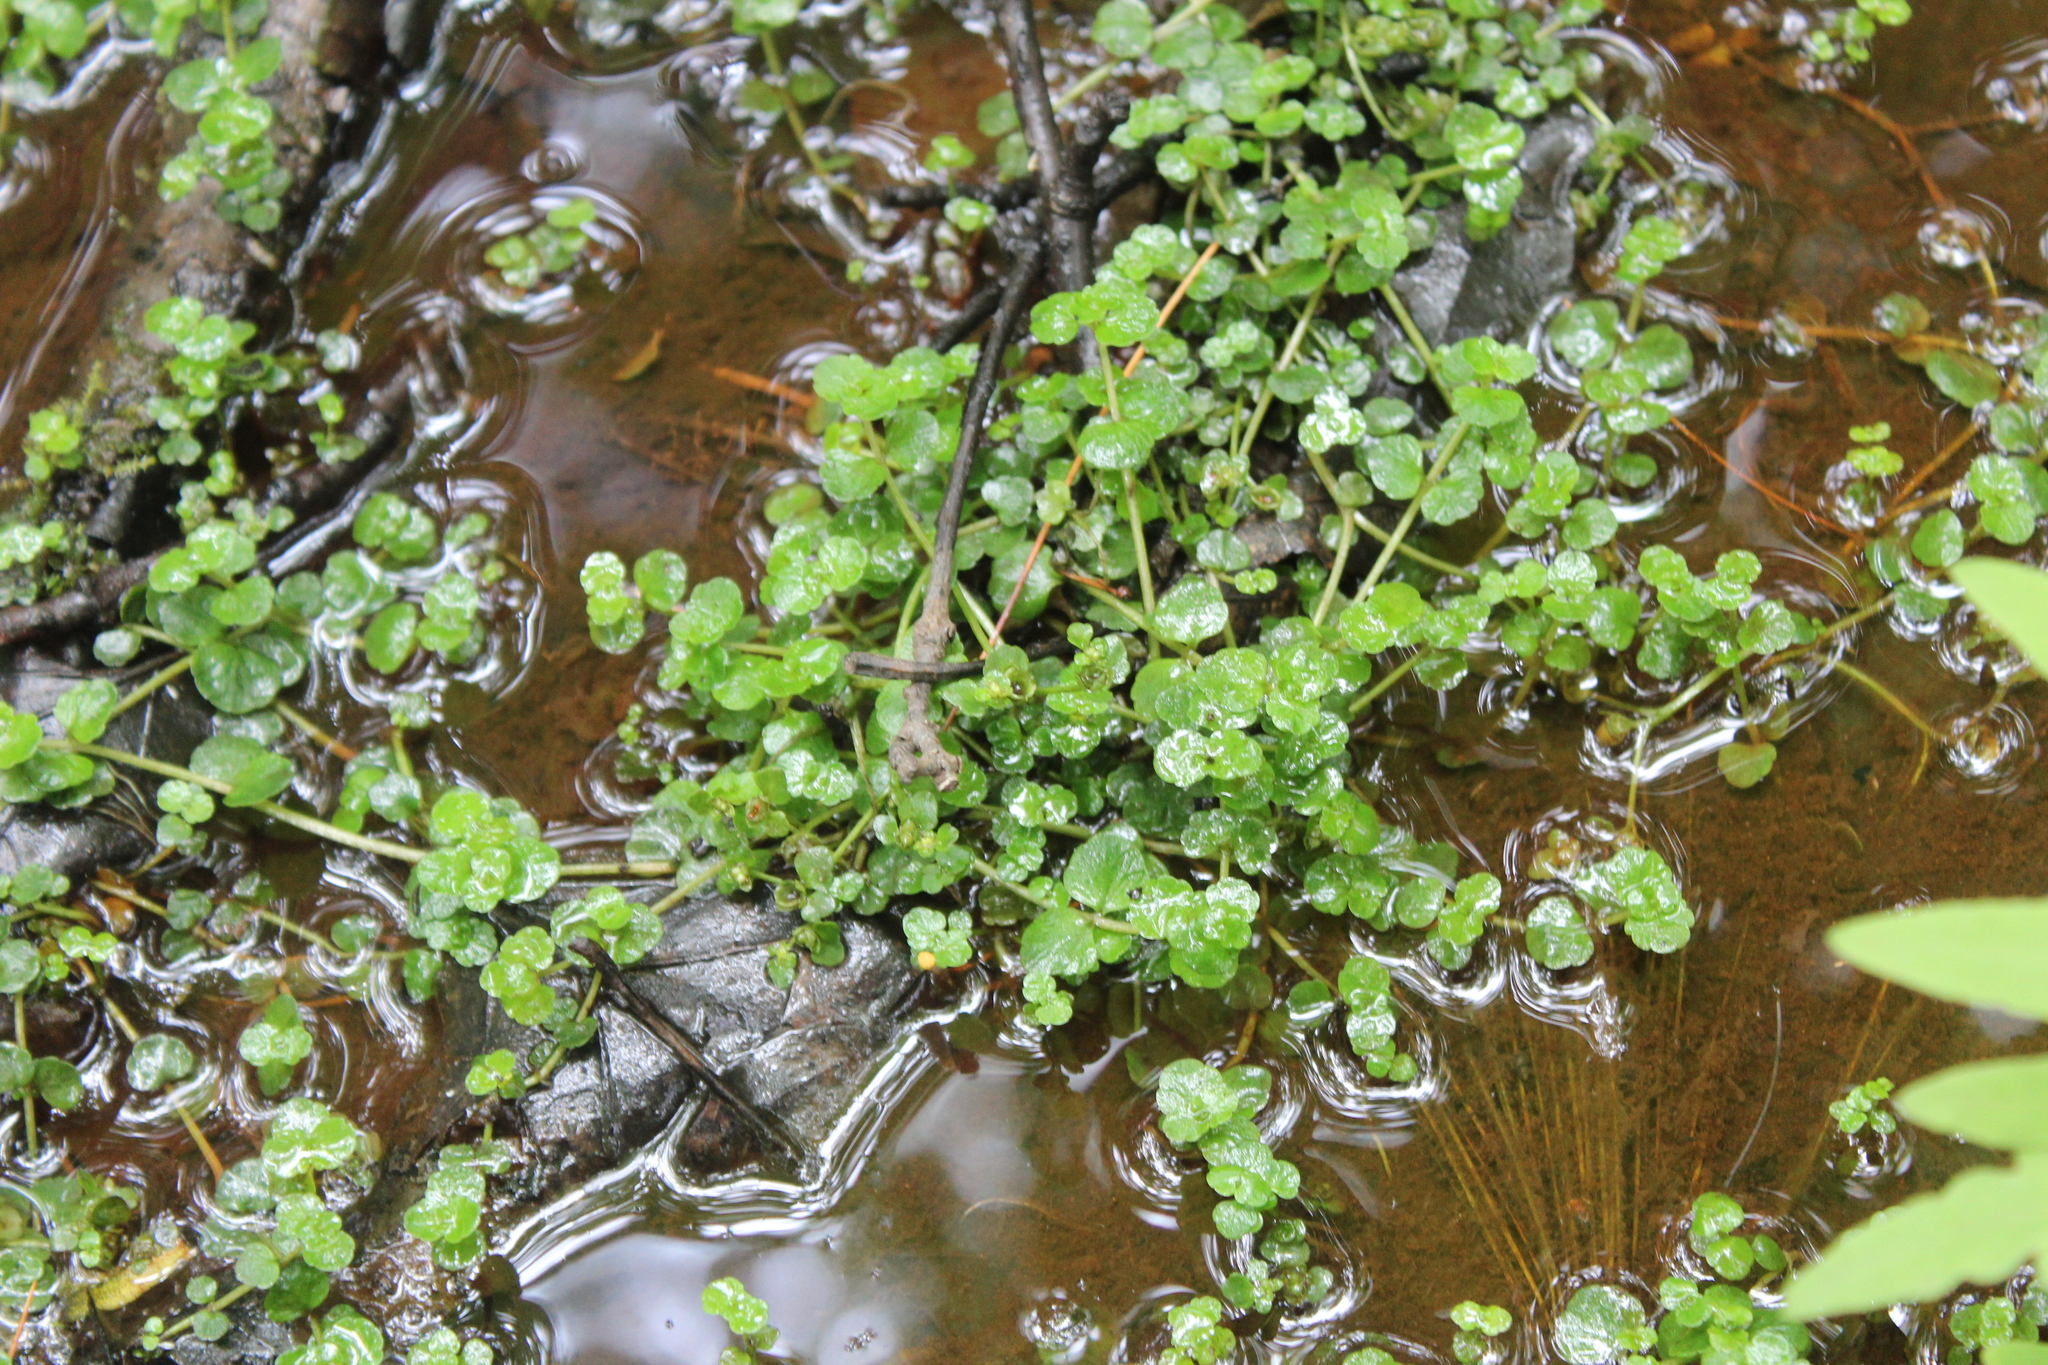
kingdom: Plantae
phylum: Tracheophyta
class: Magnoliopsida
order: Saxifragales
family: Saxifragaceae
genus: Chrysosplenium
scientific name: Chrysosplenium americanum
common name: American golden-saxifrage
